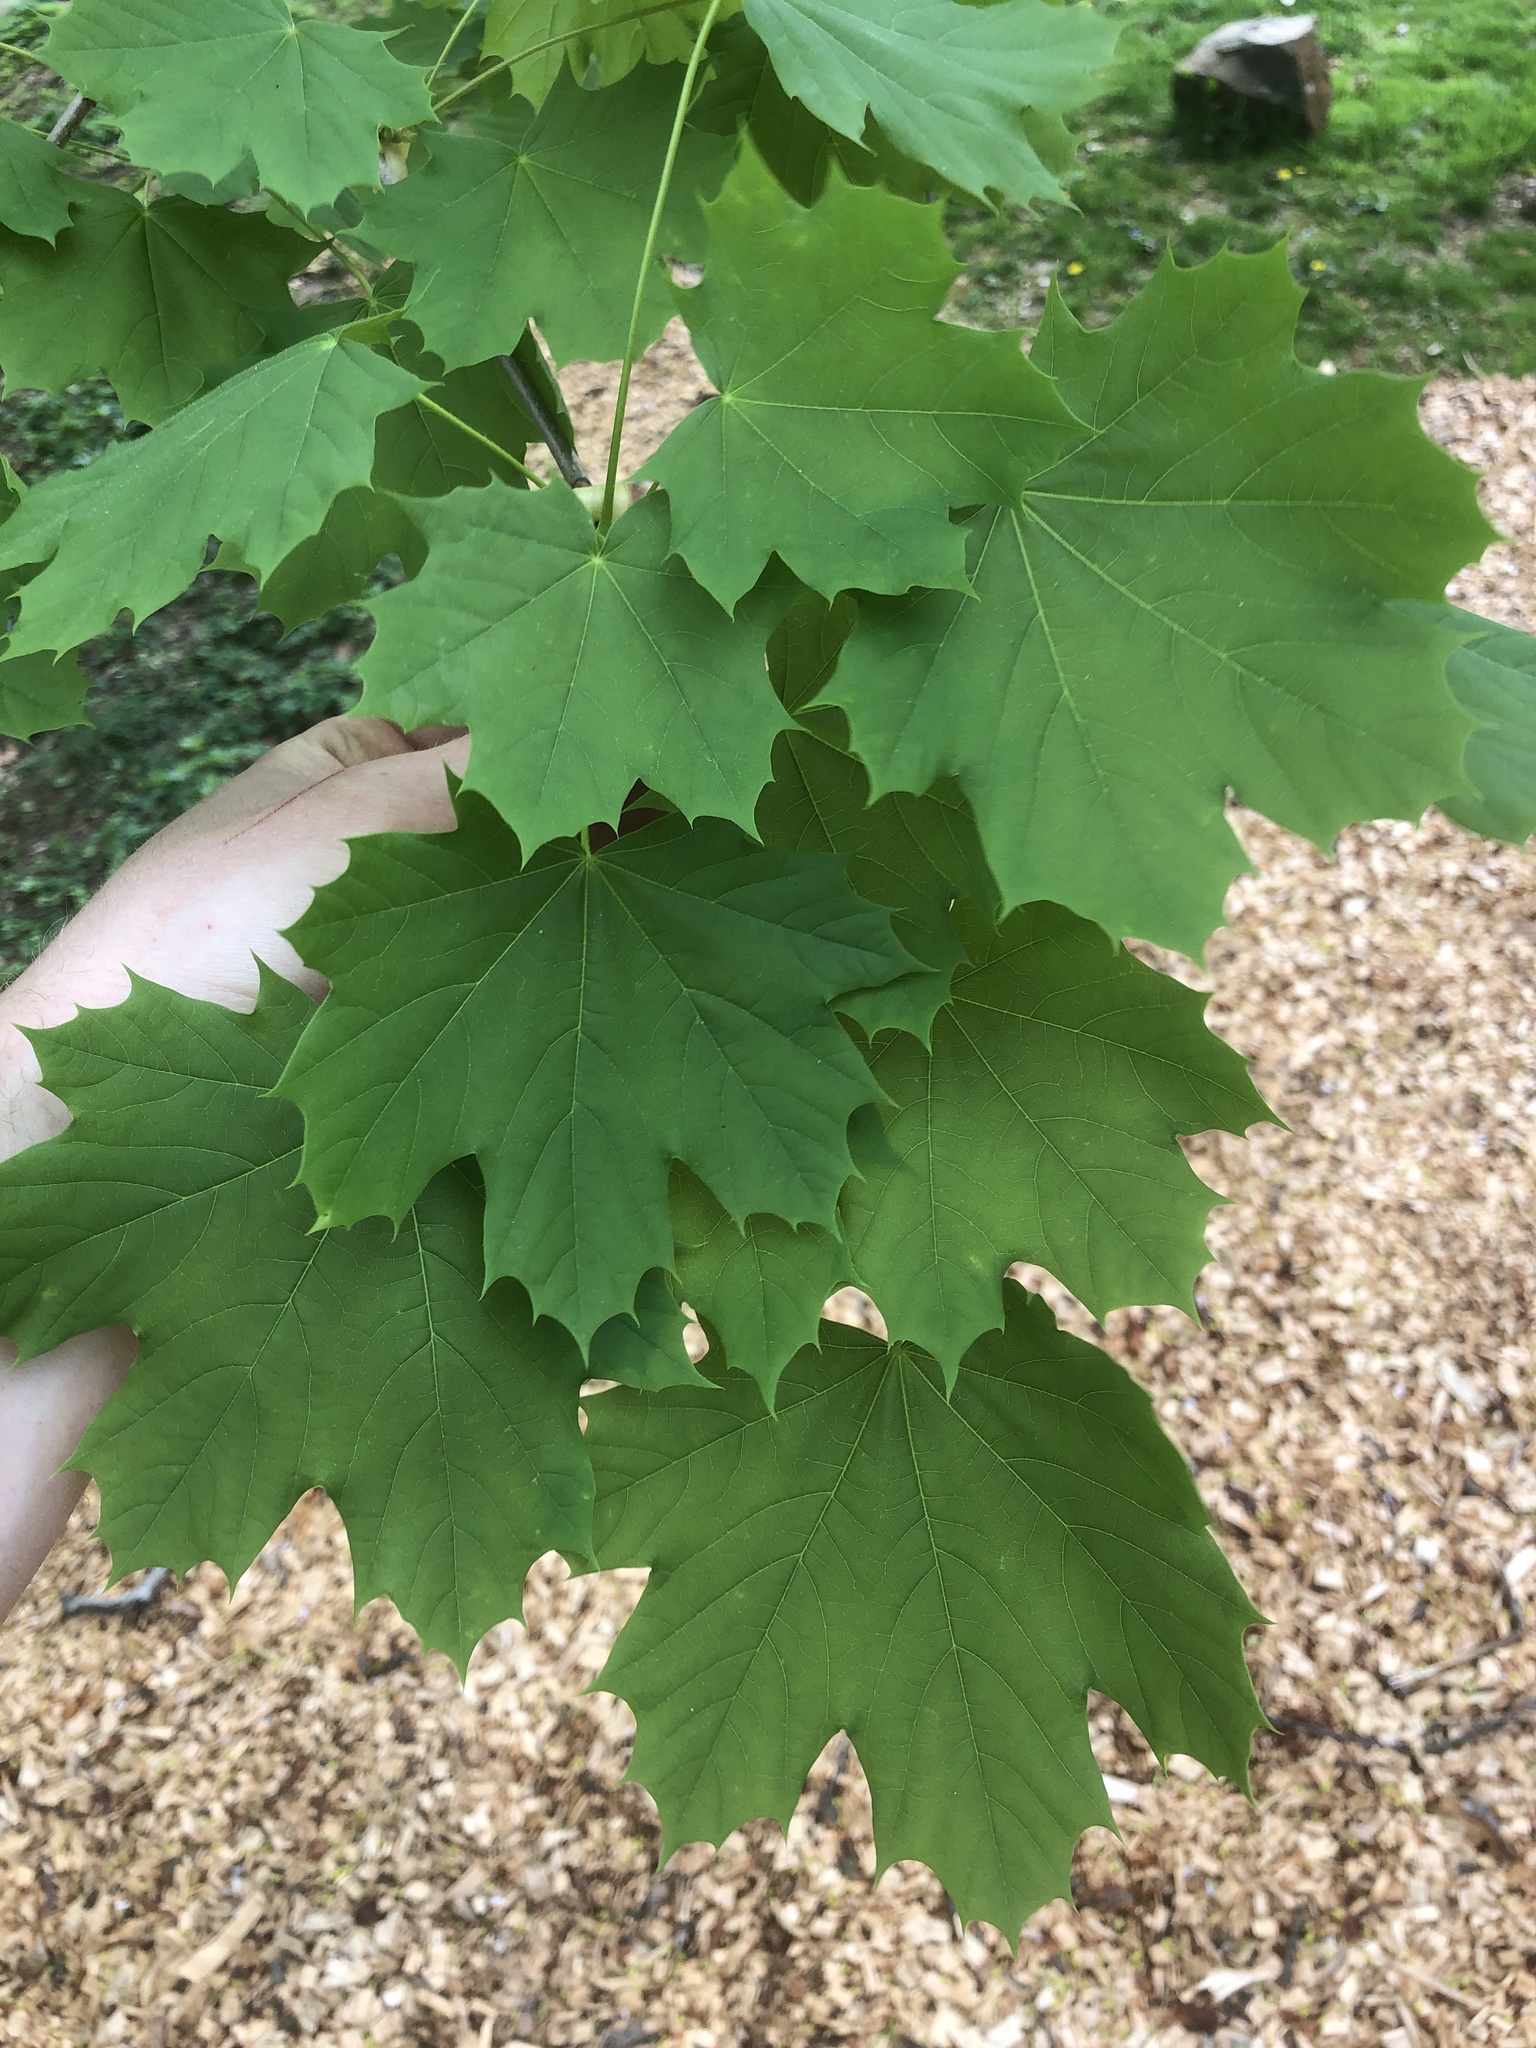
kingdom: Plantae
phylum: Tracheophyta
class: Magnoliopsida
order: Sapindales
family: Sapindaceae
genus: Acer
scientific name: Acer platanoides
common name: Norway maple
